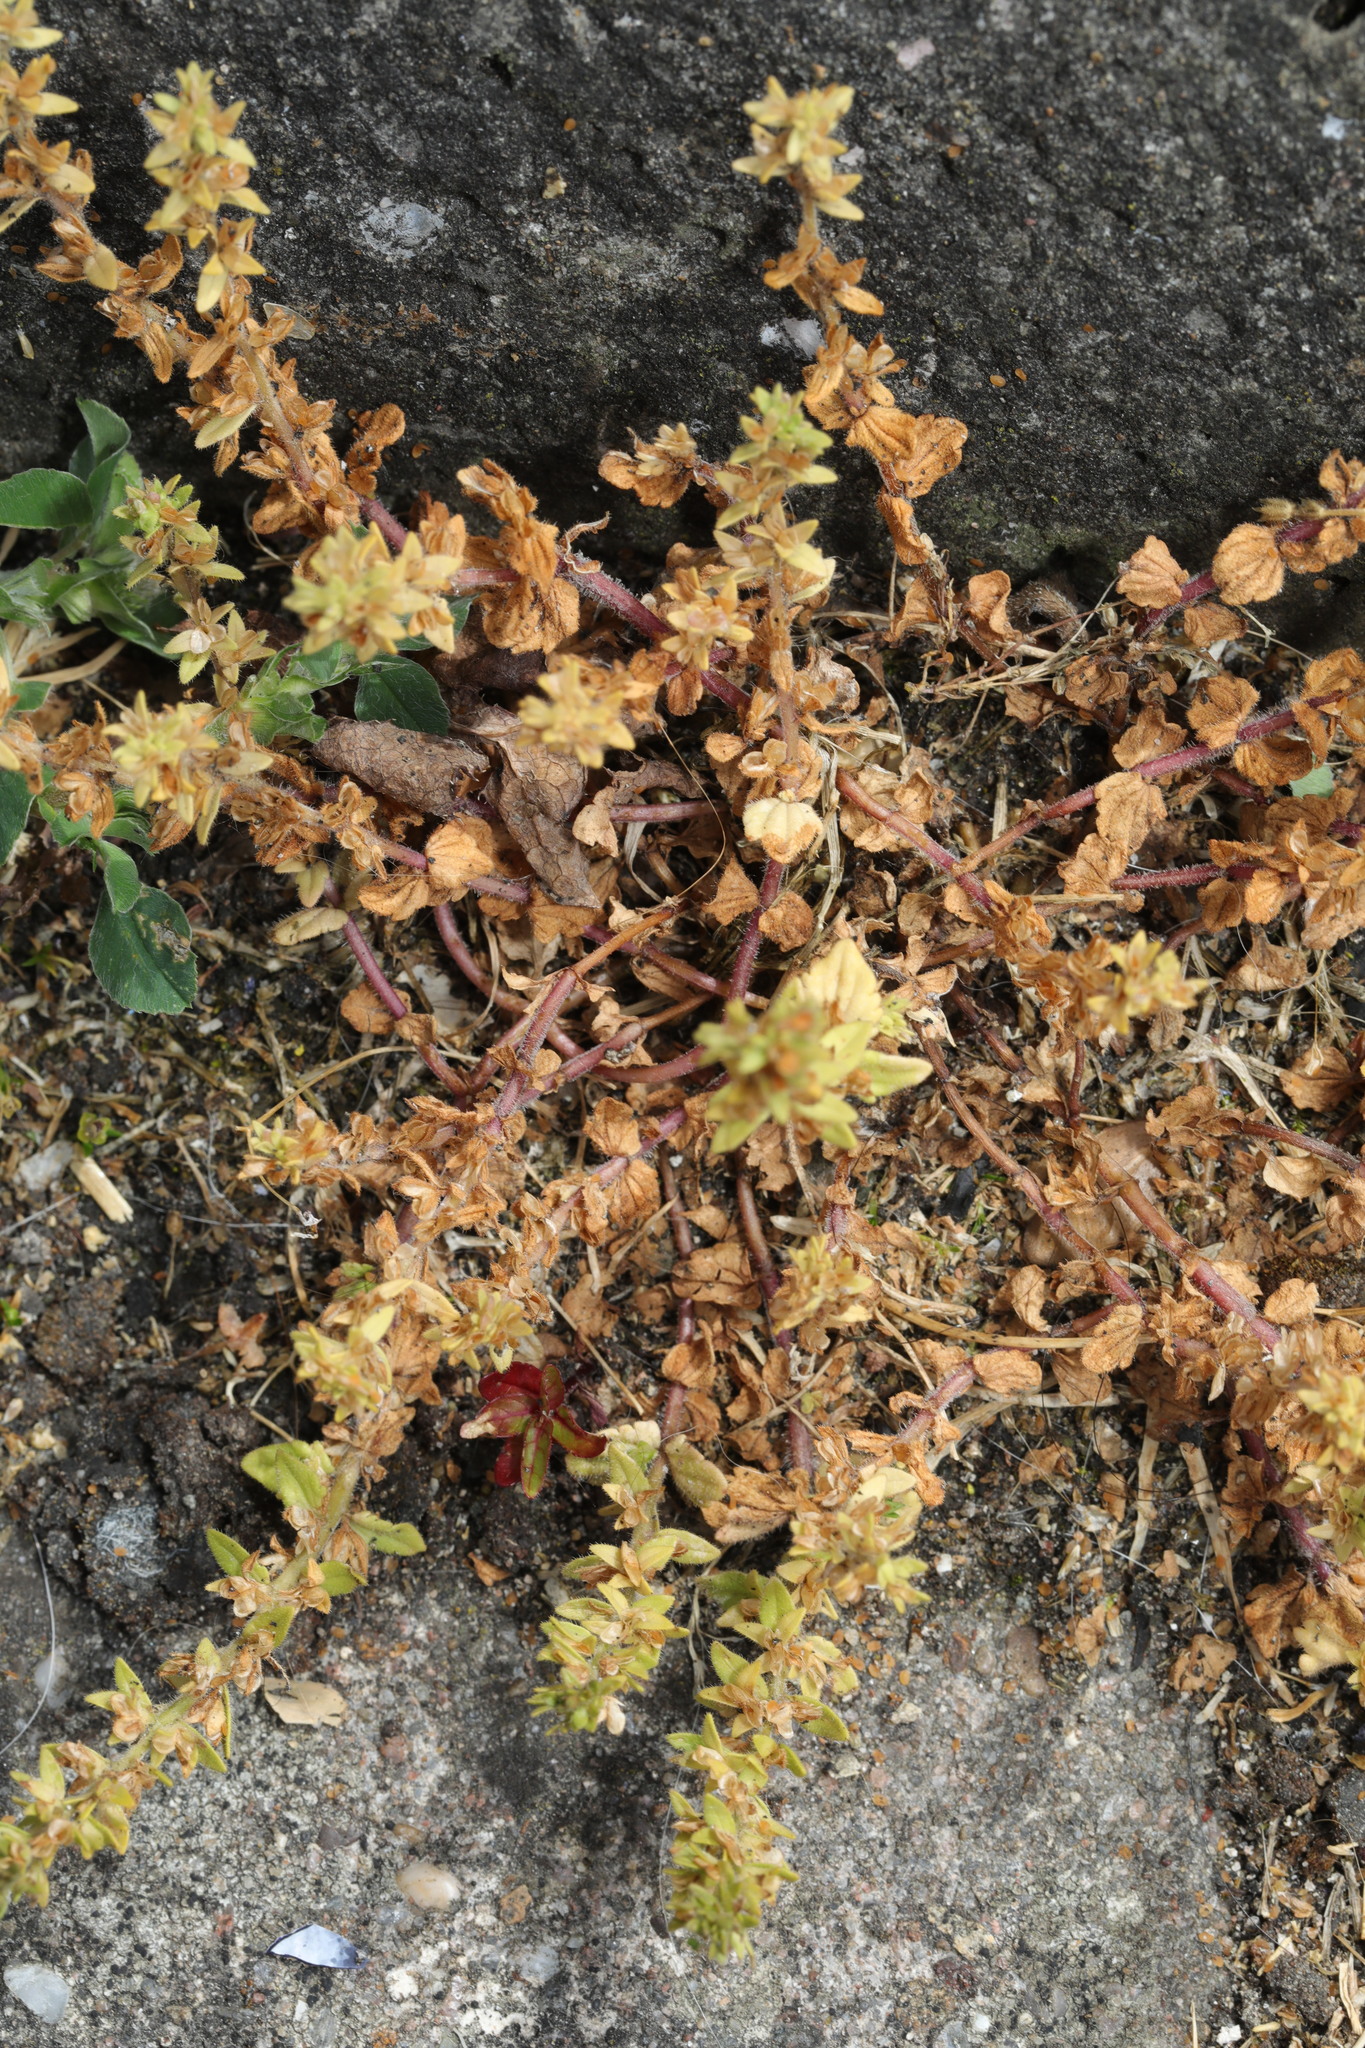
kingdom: Plantae
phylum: Tracheophyta
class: Magnoliopsida
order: Lamiales
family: Plantaginaceae
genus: Veronica
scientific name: Veronica arvensis
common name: Corn speedwell
